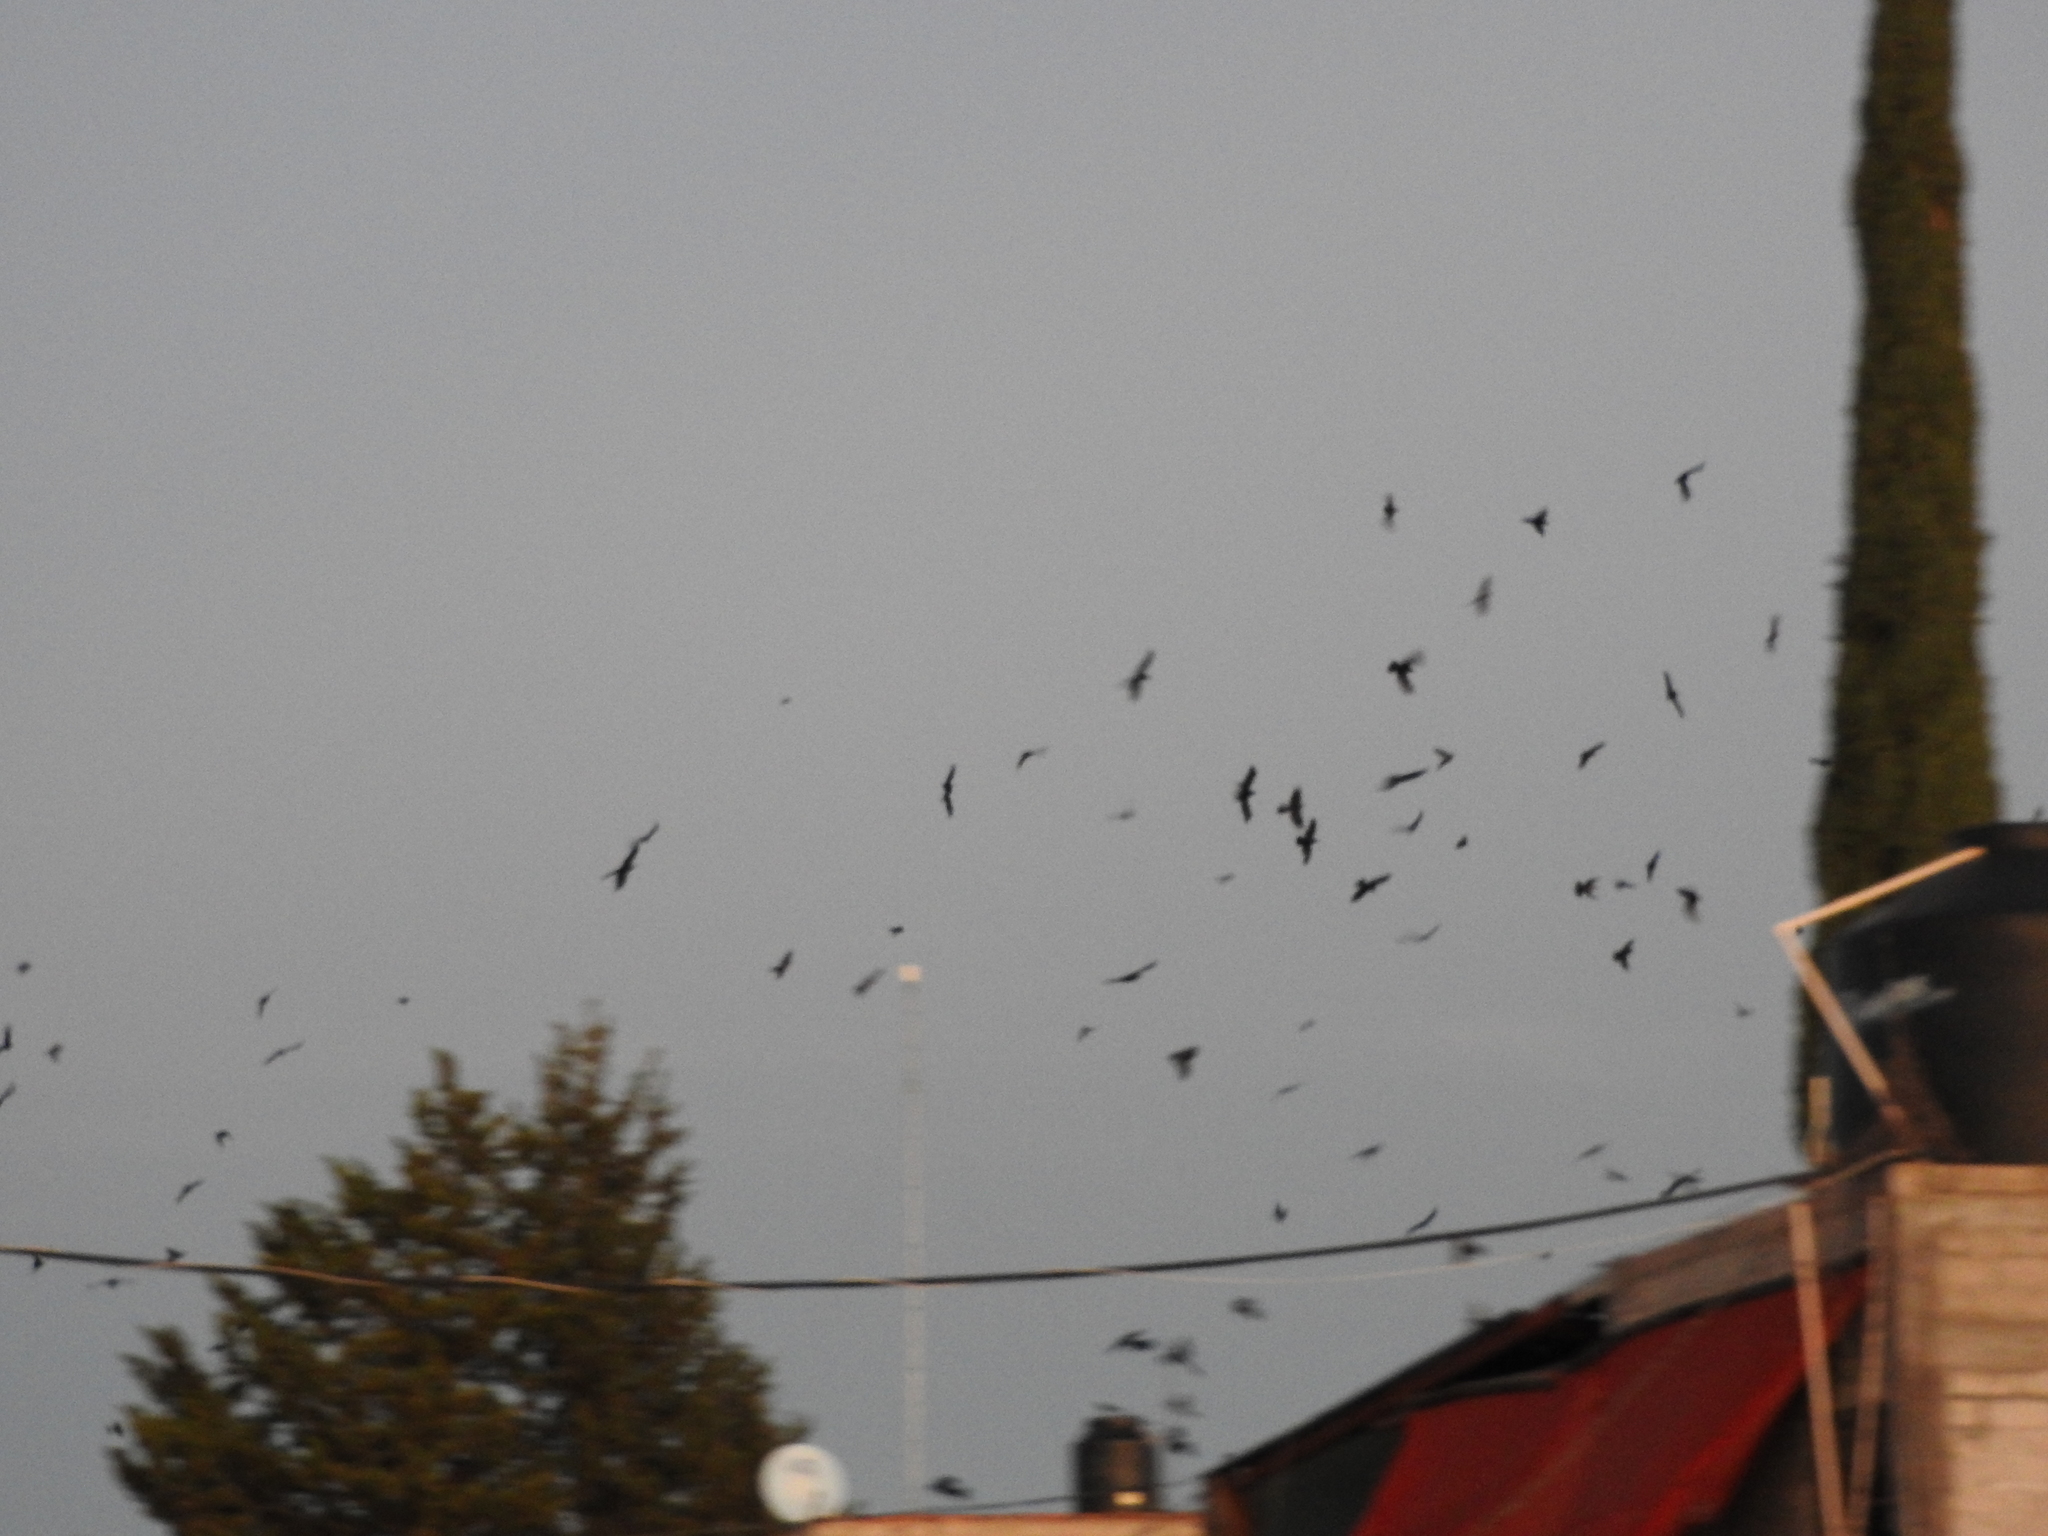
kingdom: Animalia
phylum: Chordata
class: Aves
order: Passeriformes
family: Icteridae
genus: Quiscalus
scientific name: Quiscalus mexicanus
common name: Great-tailed grackle
